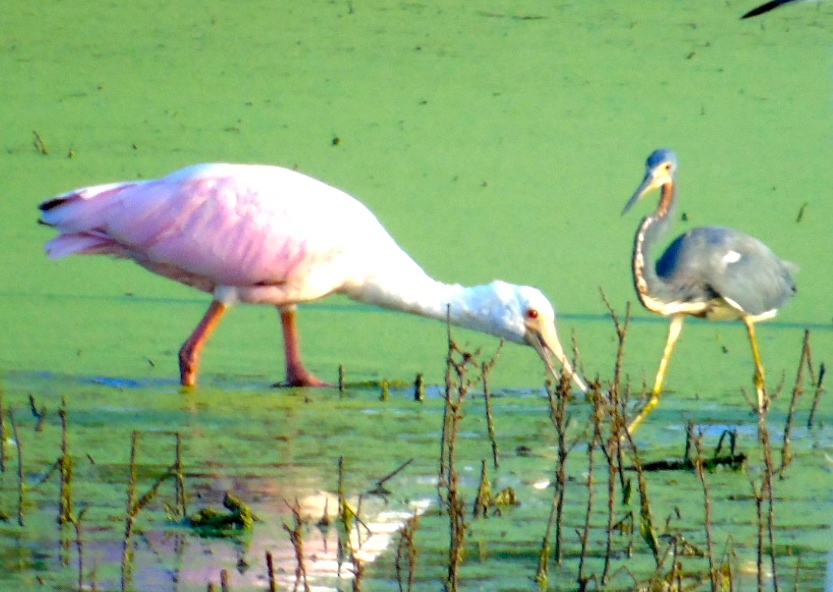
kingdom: Animalia
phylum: Chordata
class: Aves
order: Pelecaniformes
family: Threskiornithidae
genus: Platalea
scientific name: Platalea ajaja
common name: Roseate spoonbill
